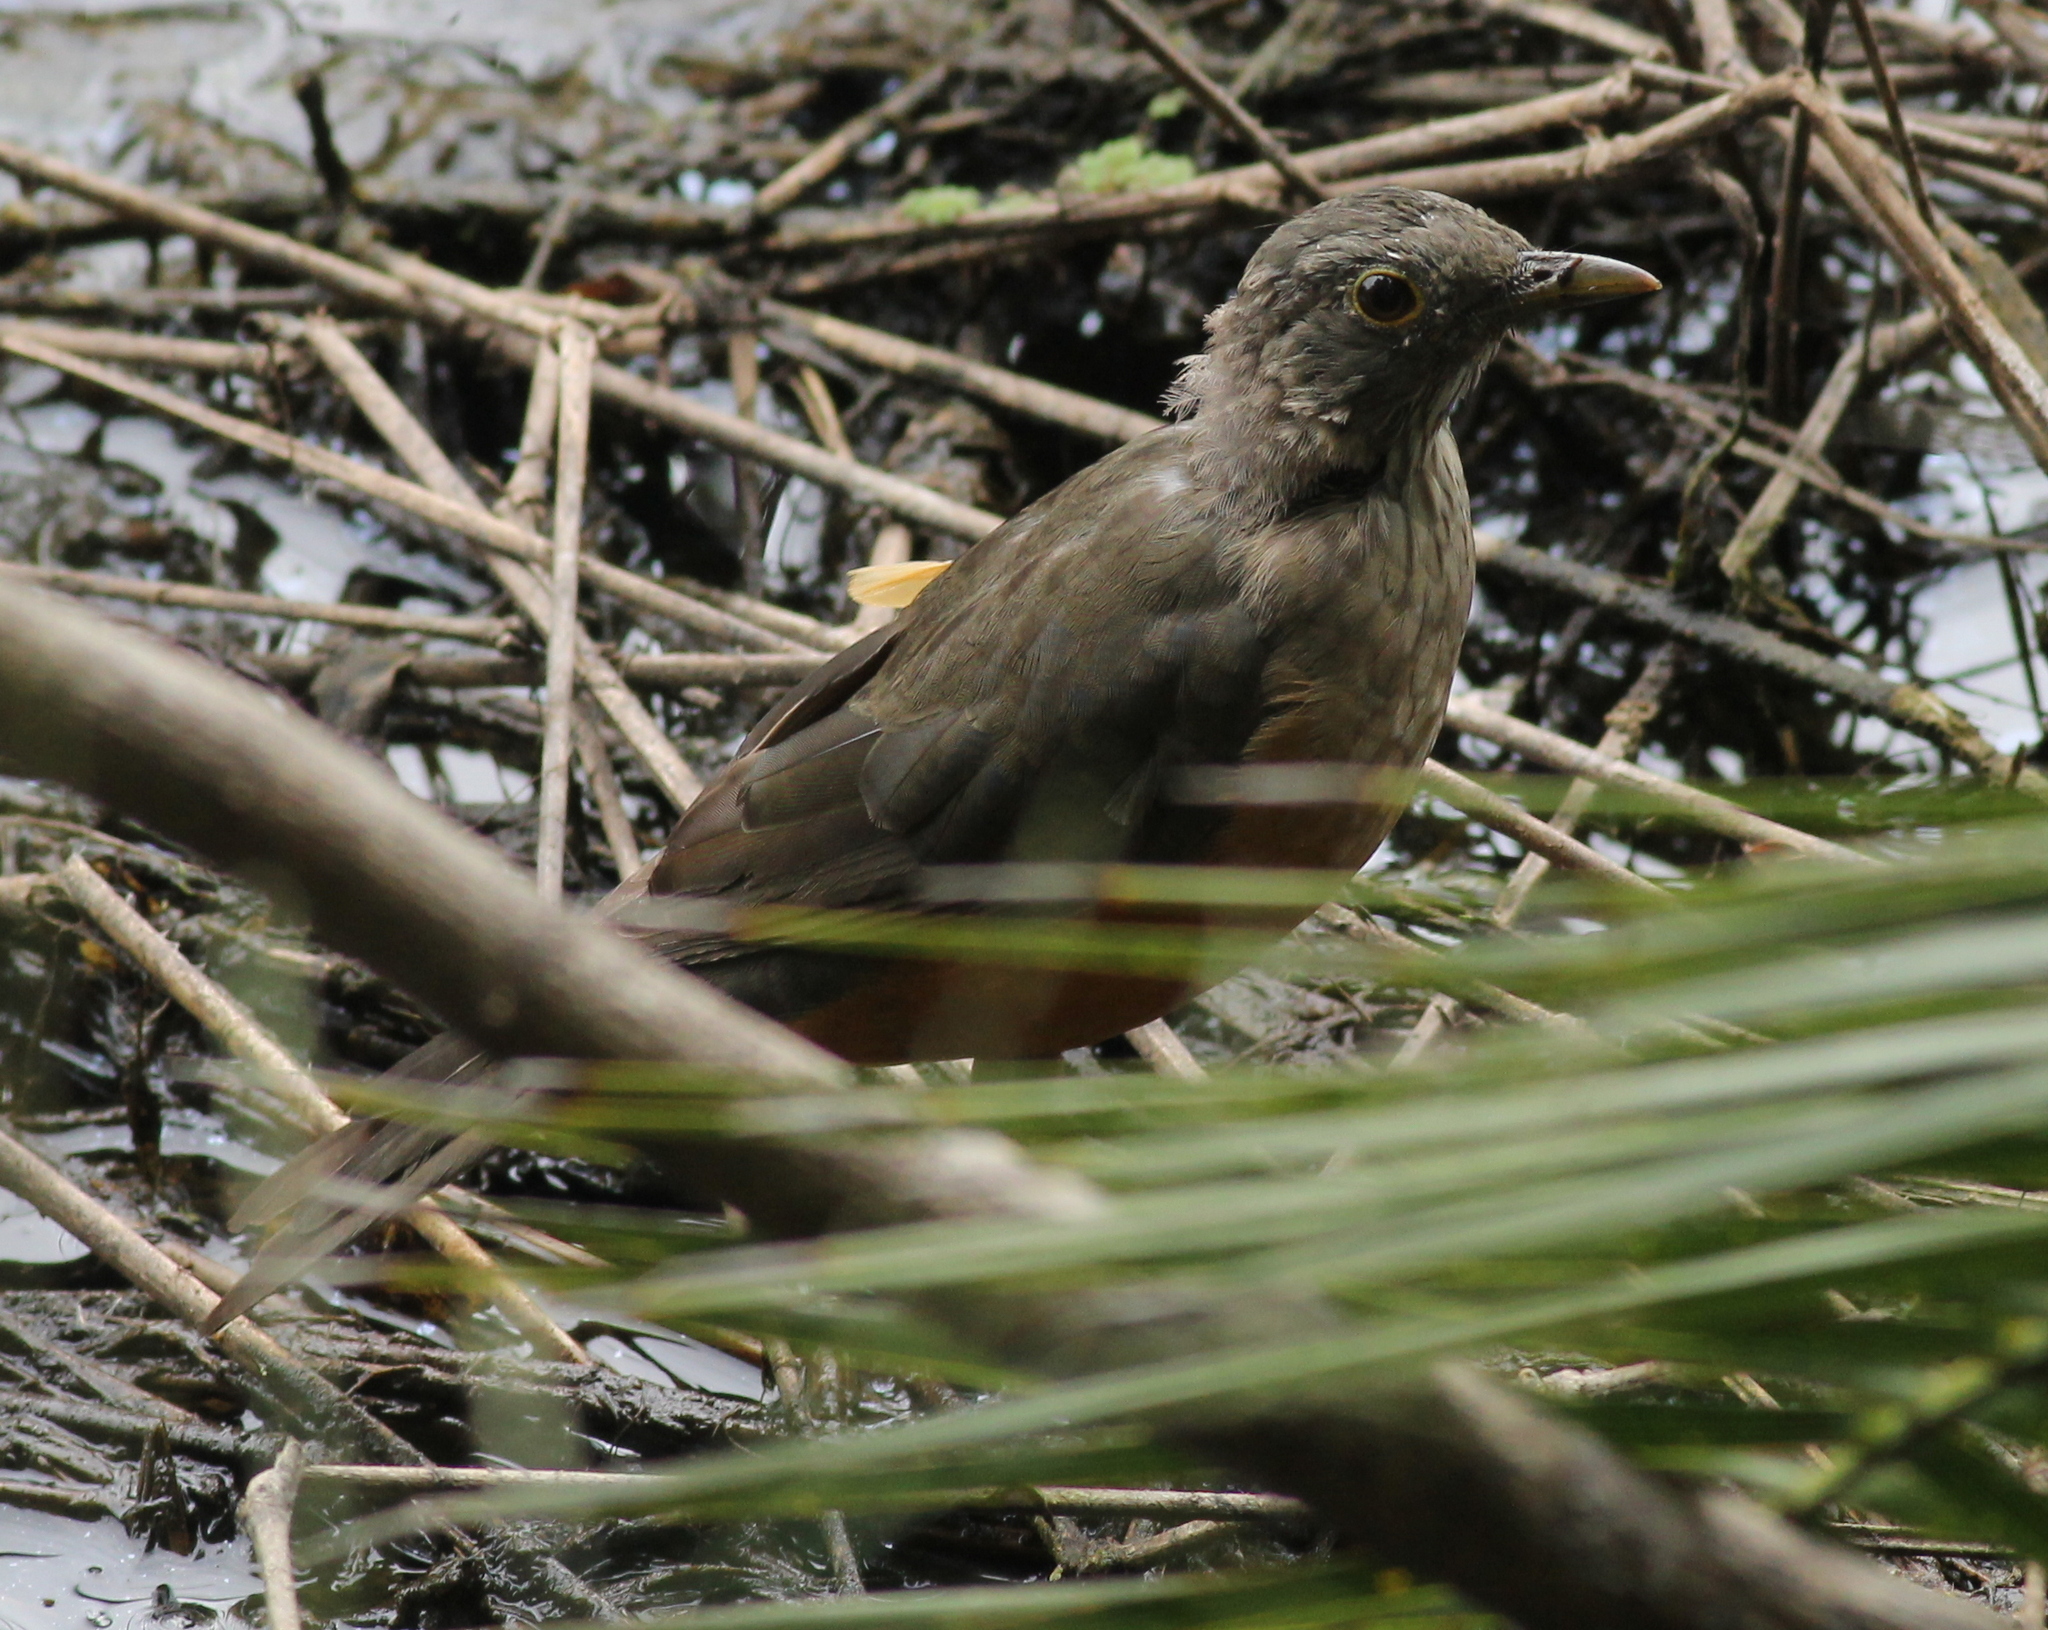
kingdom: Animalia
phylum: Chordata
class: Aves
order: Passeriformes
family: Turdidae
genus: Turdus
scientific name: Turdus rufiventris
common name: Rufous-bellied thrush
